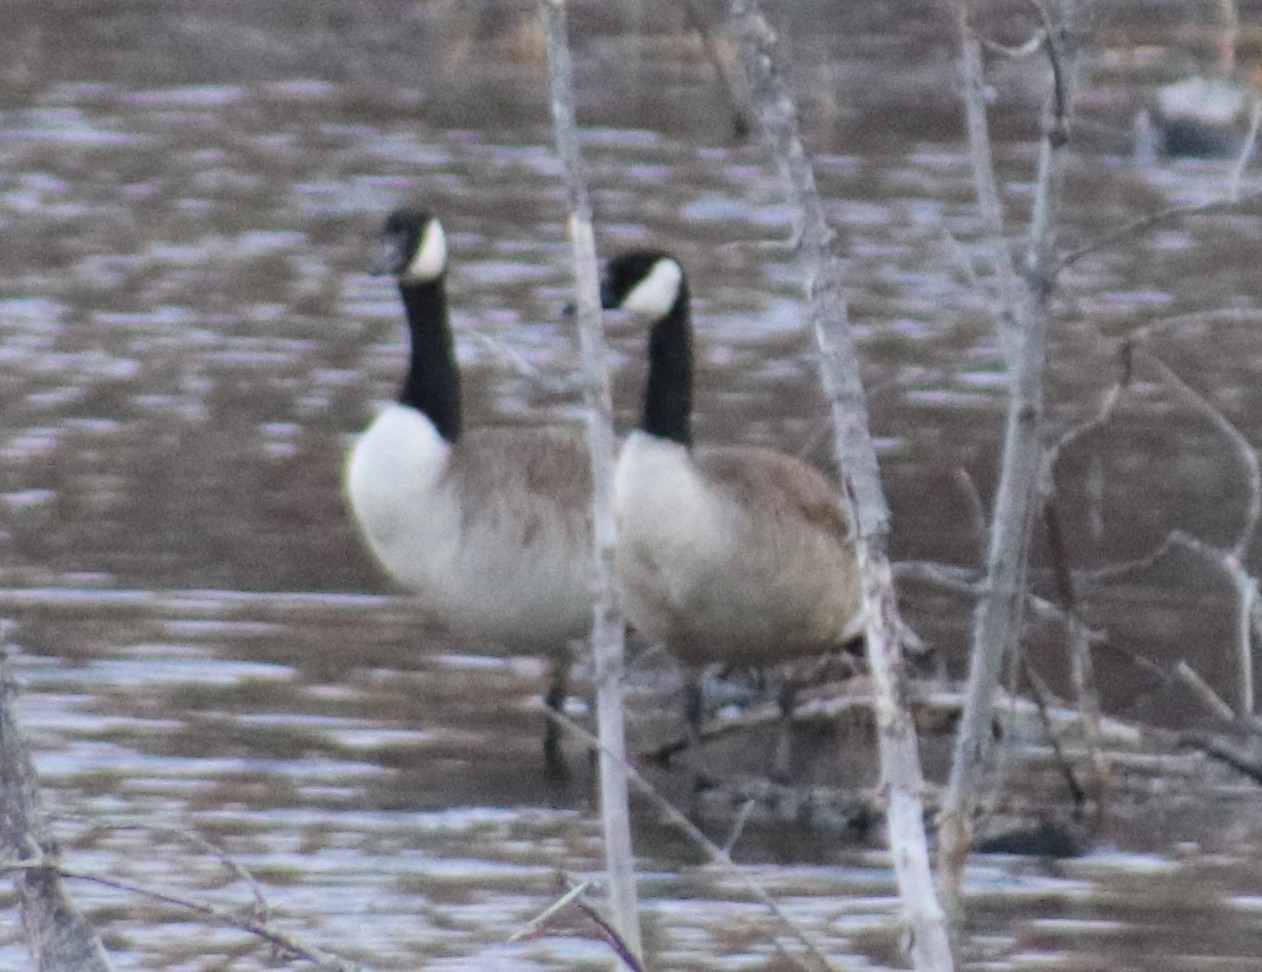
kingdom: Animalia
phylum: Chordata
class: Aves
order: Anseriformes
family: Anatidae
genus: Branta
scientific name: Branta canadensis
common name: Canada goose
